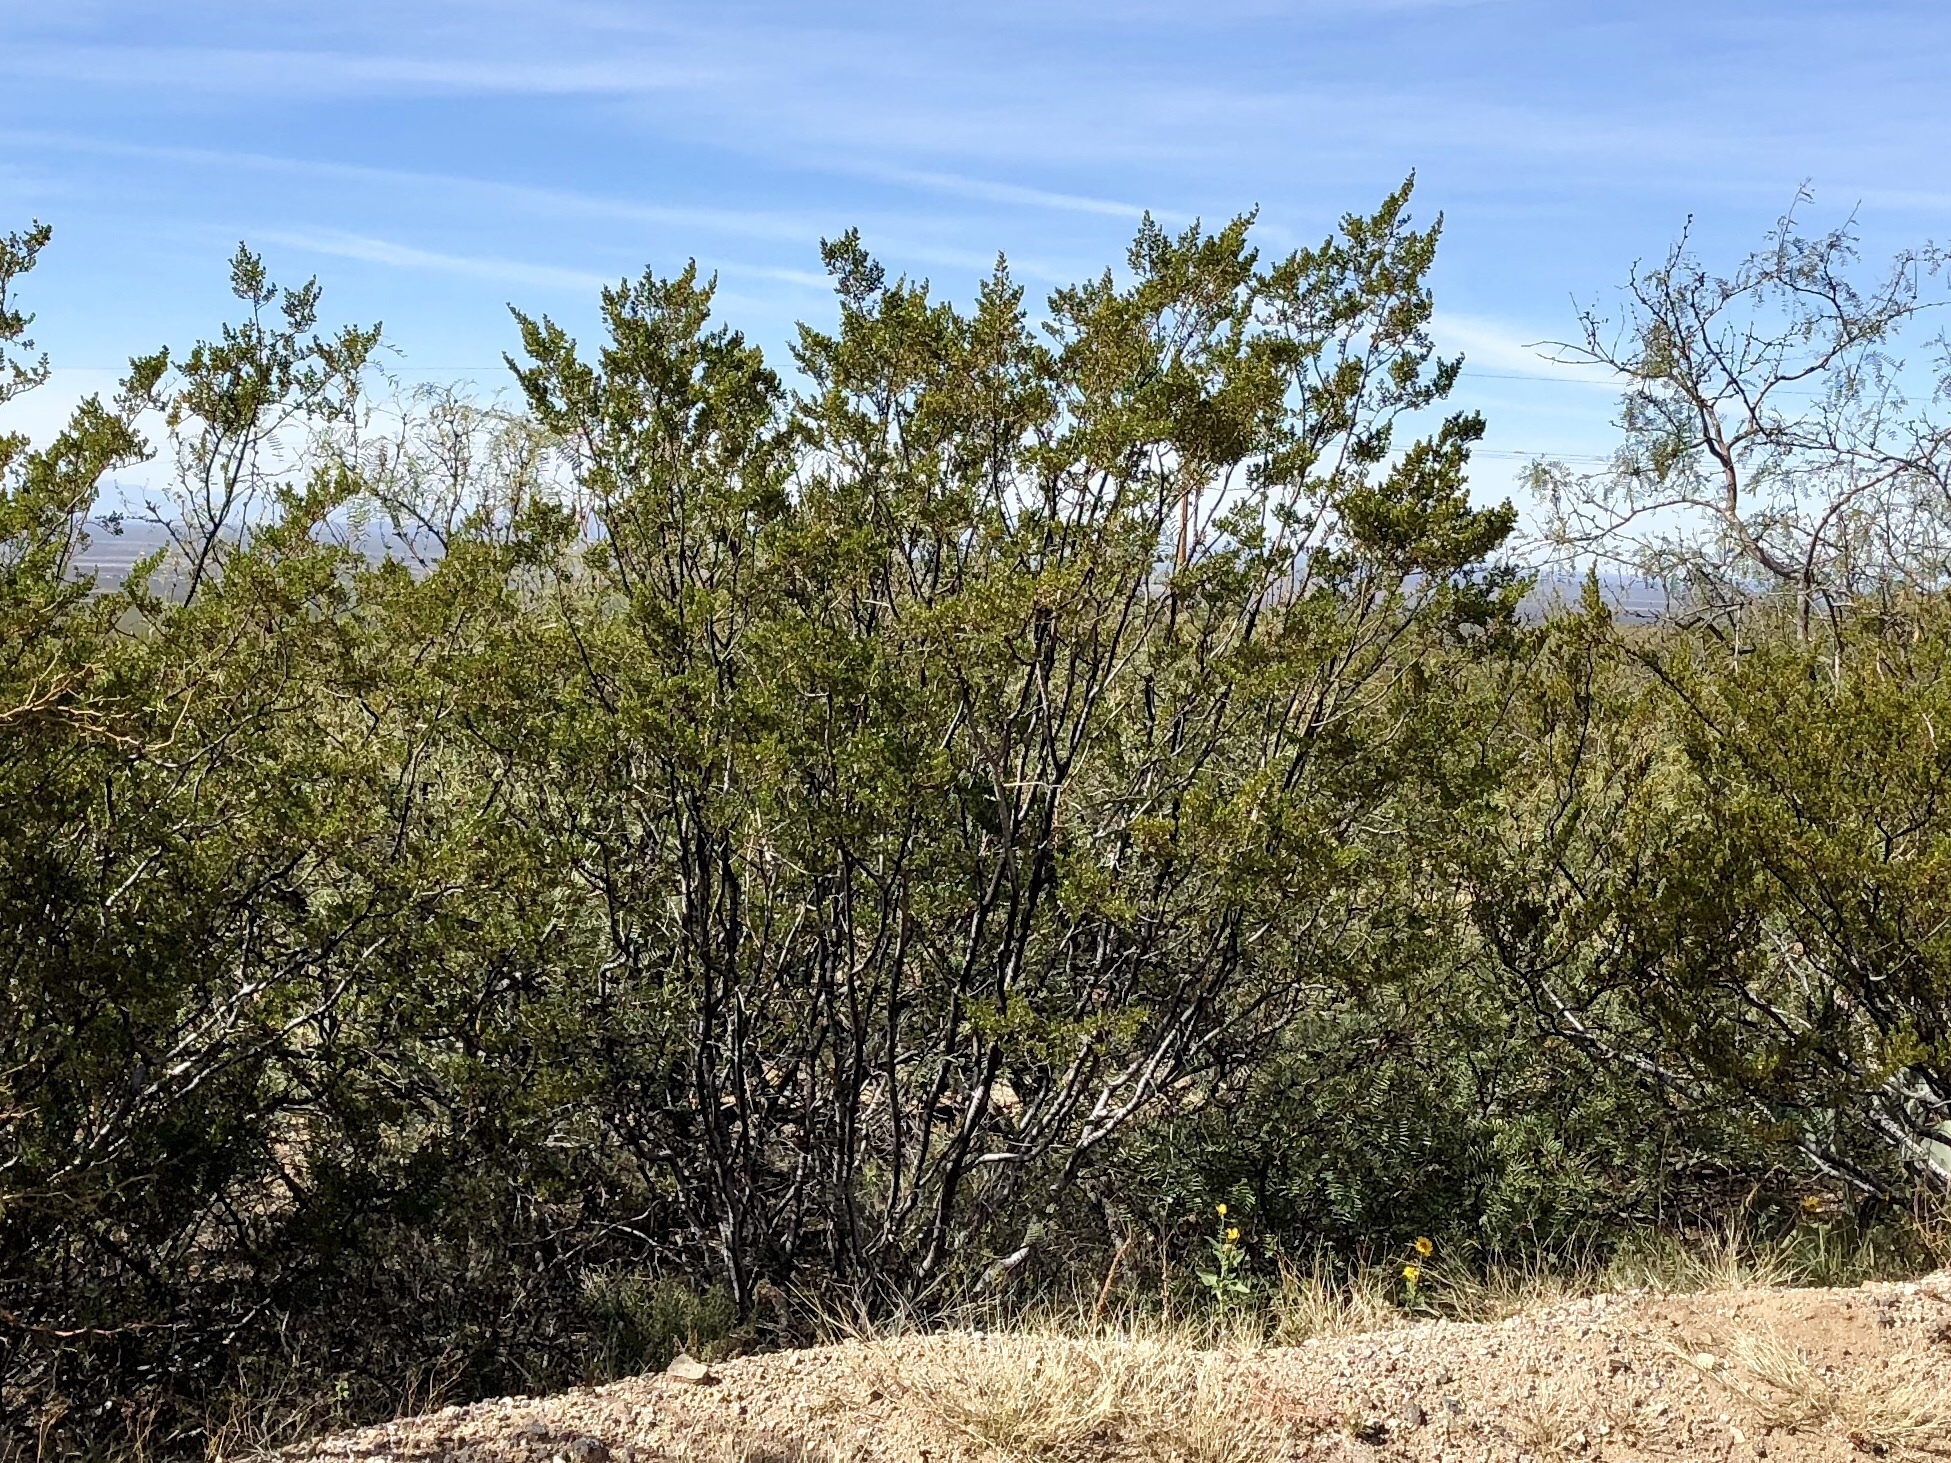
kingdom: Plantae
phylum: Tracheophyta
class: Magnoliopsida
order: Zygophyllales
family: Zygophyllaceae
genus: Larrea
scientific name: Larrea tridentata
